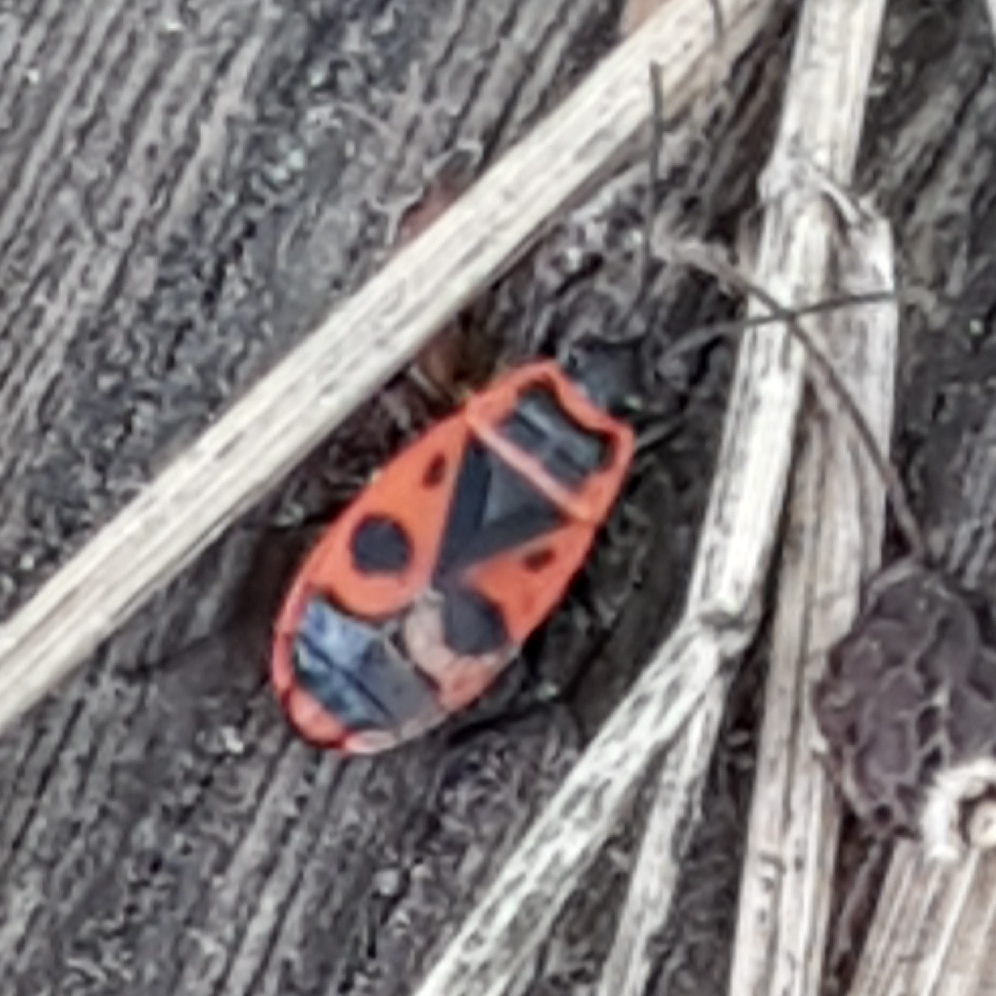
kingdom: Animalia
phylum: Arthropoda
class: Insecta
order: Hemiptera
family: Pyrrhocoridae
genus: Pyrrhocoris
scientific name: Pyrrhocoris apterus
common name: Firebug
